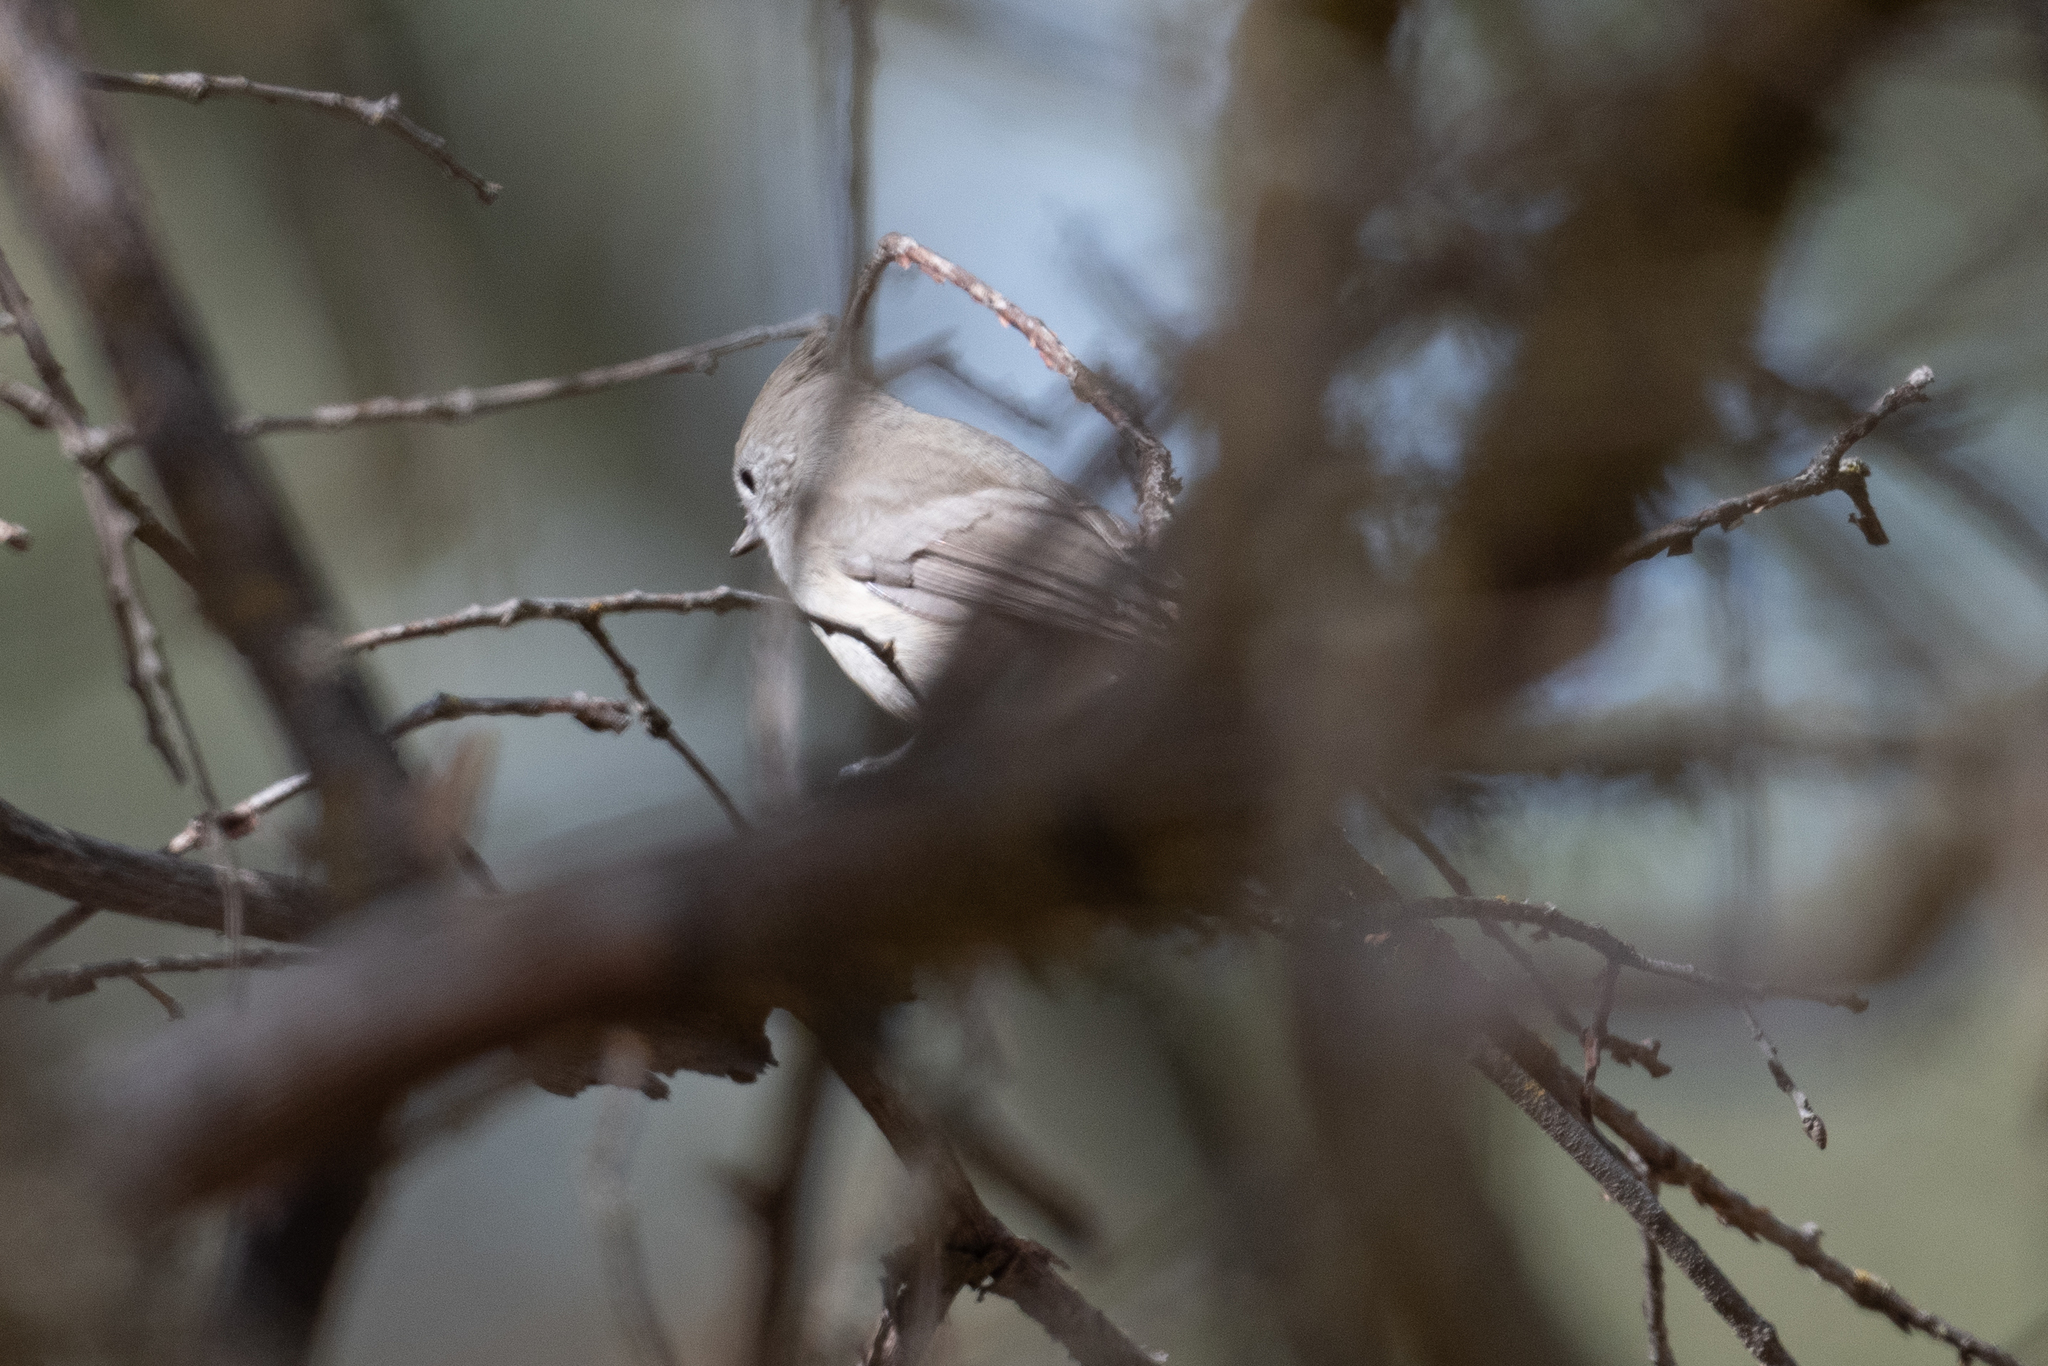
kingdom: Animalia
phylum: Chordata
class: Aves
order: Passeriformes
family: Paridae
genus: Baeolophus
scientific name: Baeolophus inornatus
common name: Oak titmouse
